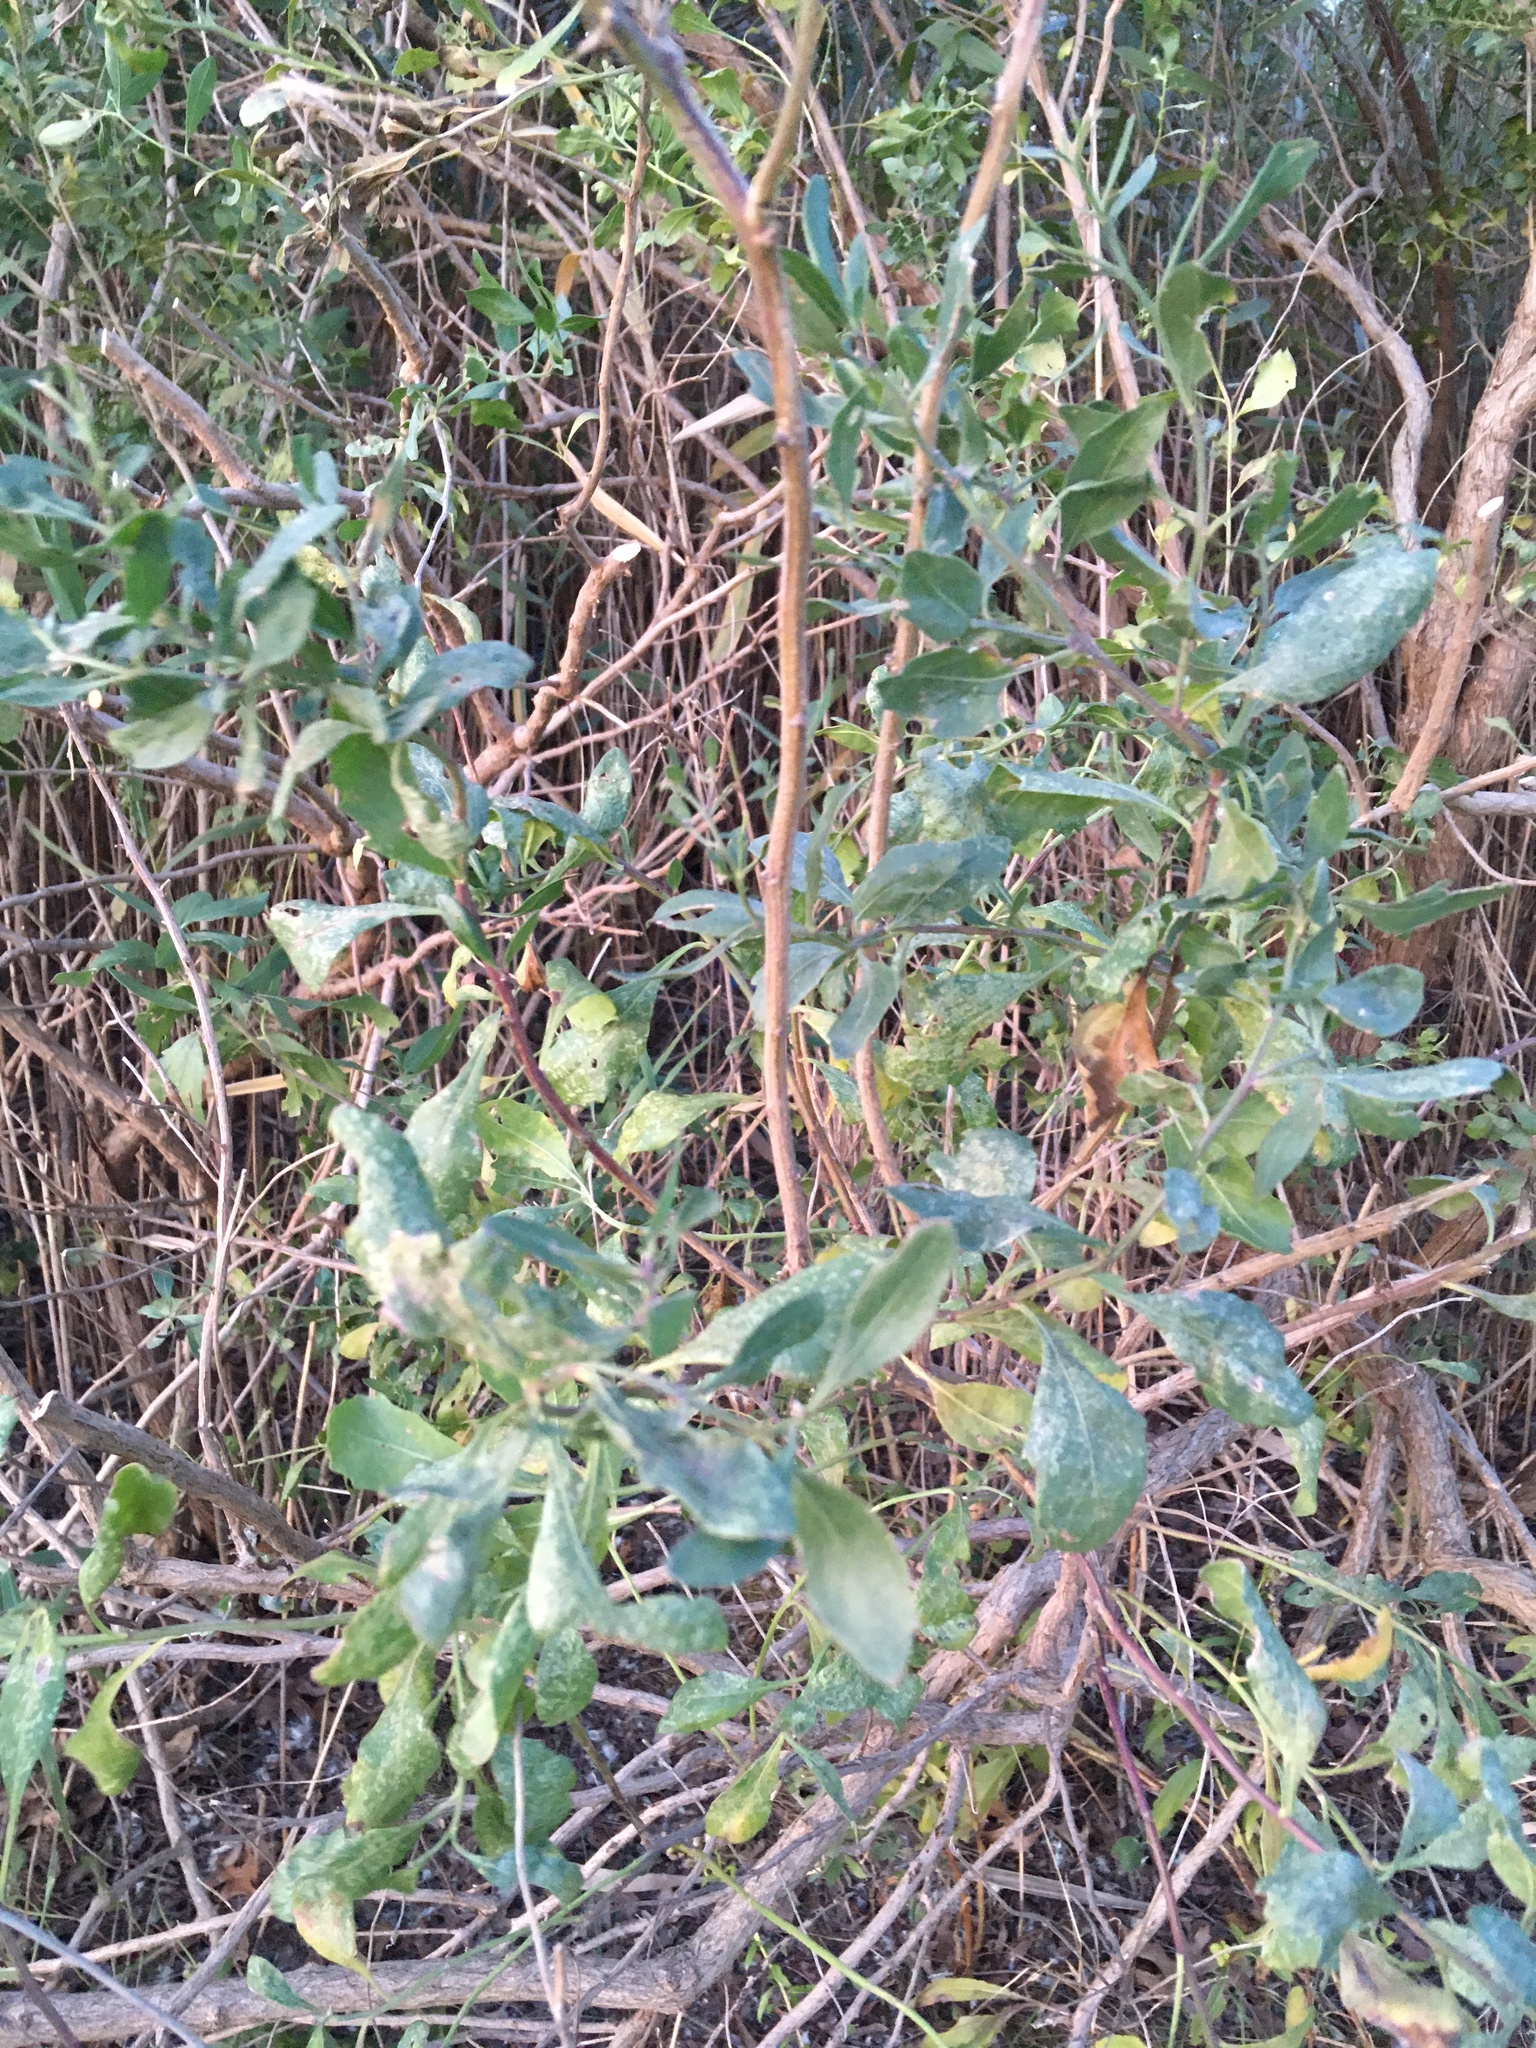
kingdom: Plantae
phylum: Tracheophyta
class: Magnoliopsida
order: Asterales
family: Asteraceae
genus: Baccharis
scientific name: Baccharis halimifolia
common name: Eastern baccharis
